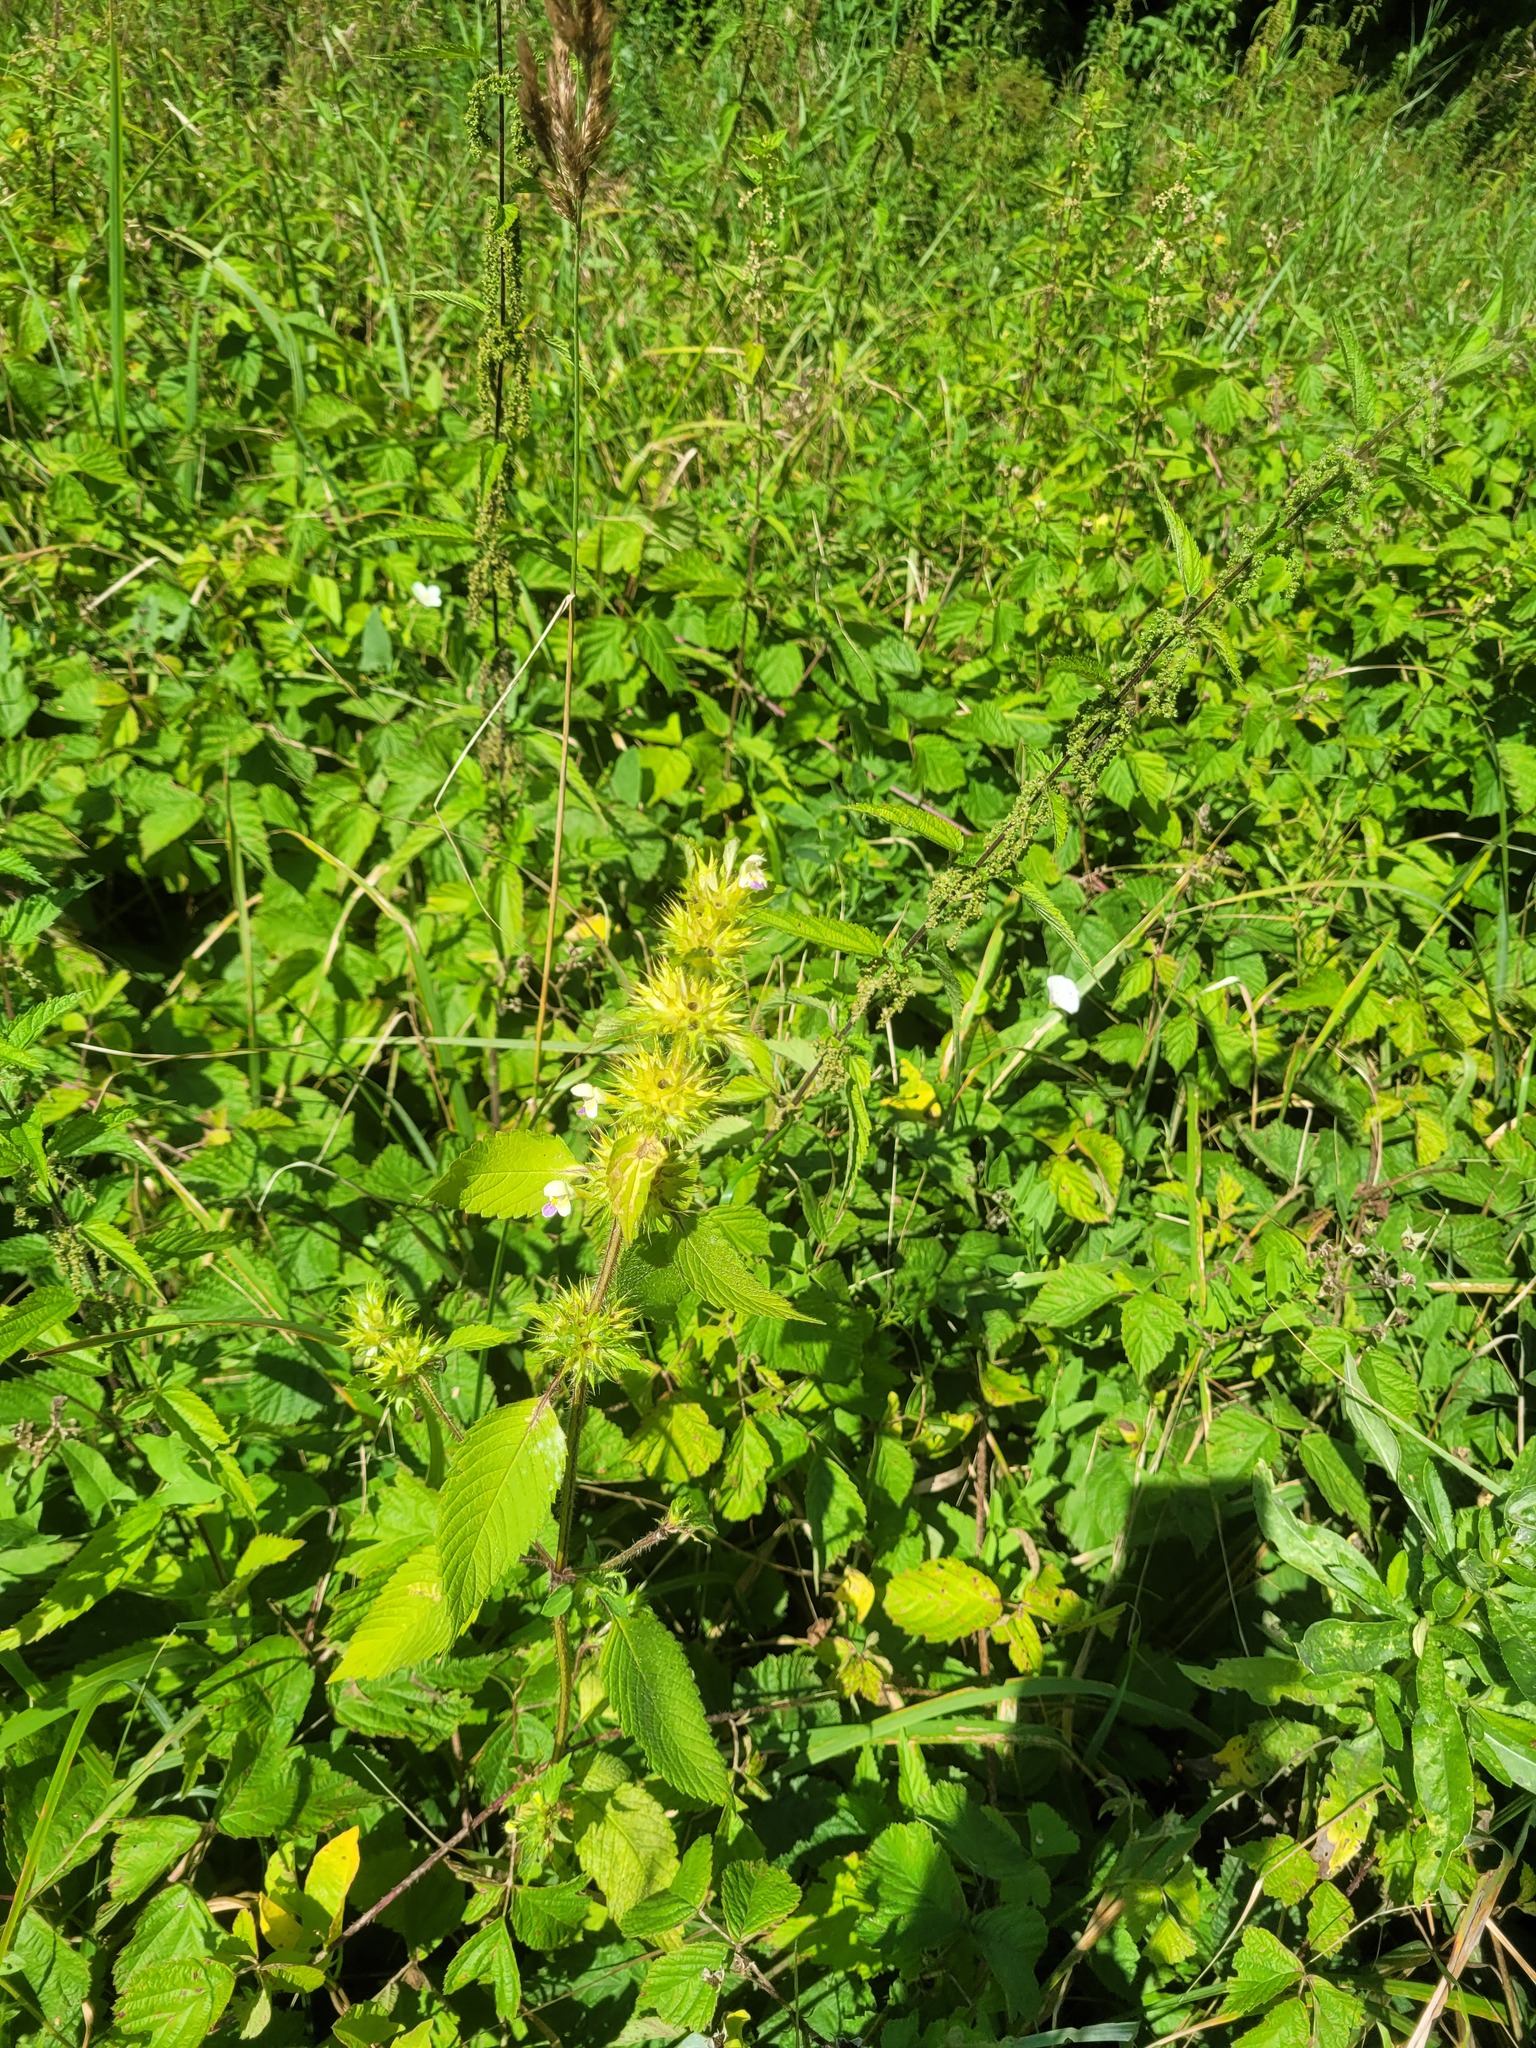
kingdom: Plantae
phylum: Tracheophyta
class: Magnoliopsida
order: Lamiales
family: Lamiaceae
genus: Galeopsis
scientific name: Galeopsis speciosa
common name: Large-flowered hemp-nettle
